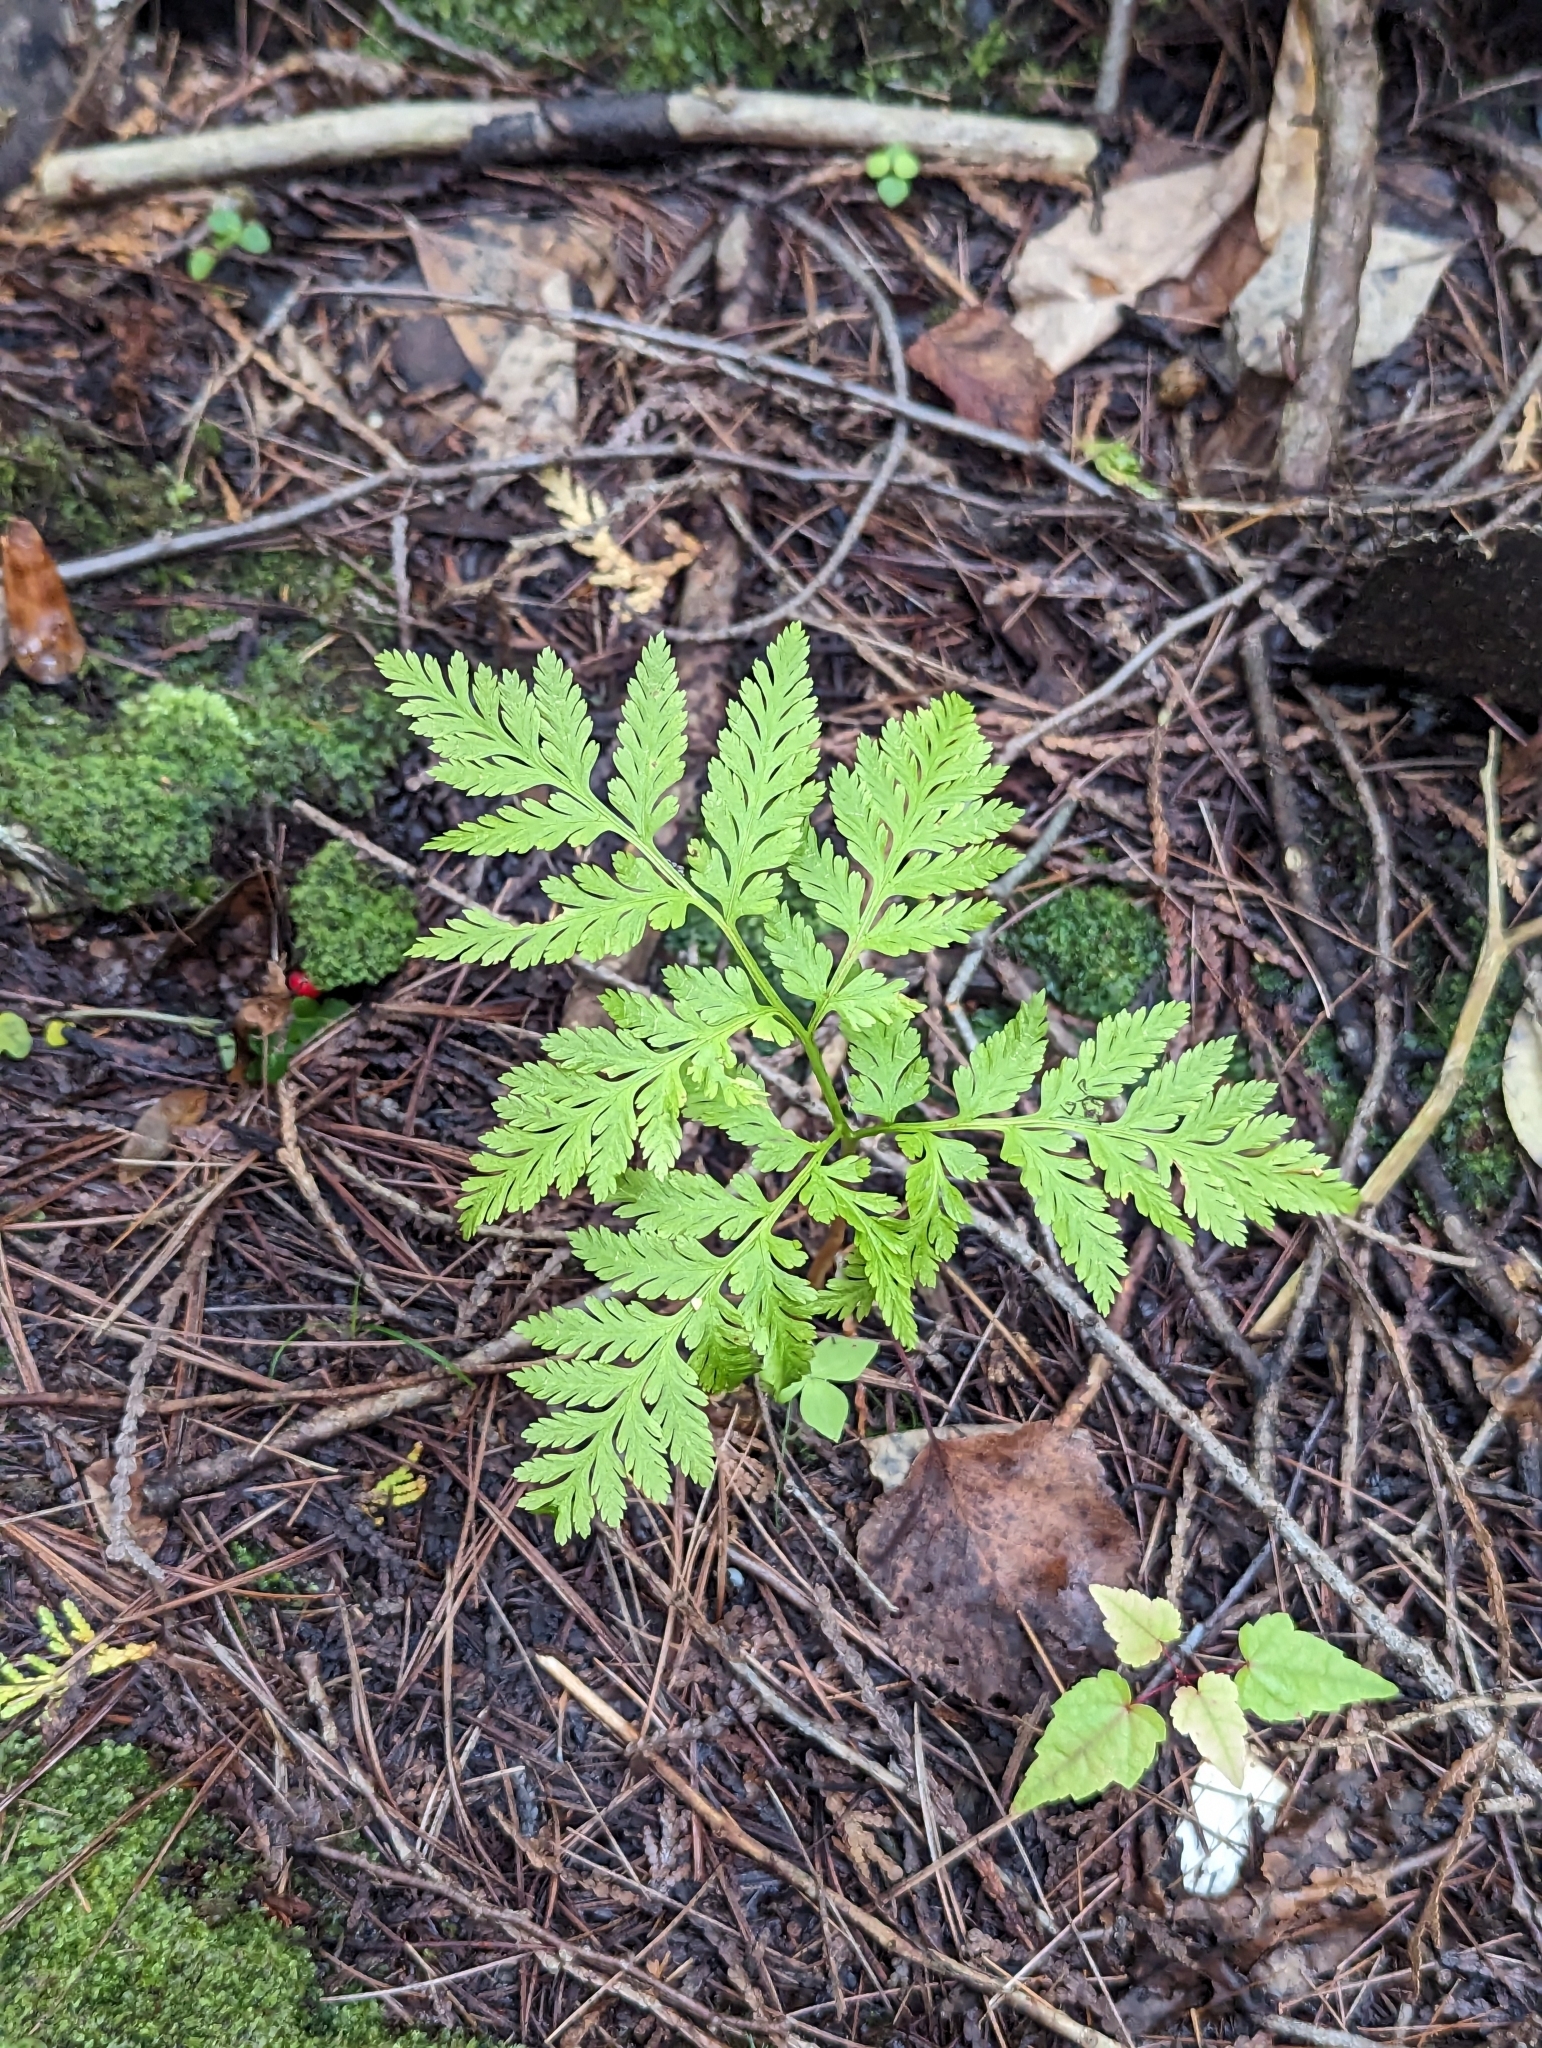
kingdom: Plantae
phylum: Tracheophyta
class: Polypodiopsida
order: Ophioglossales
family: Ophioglossaceae
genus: Botrypus
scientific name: Botrypus virginianus
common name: Common grapefern
